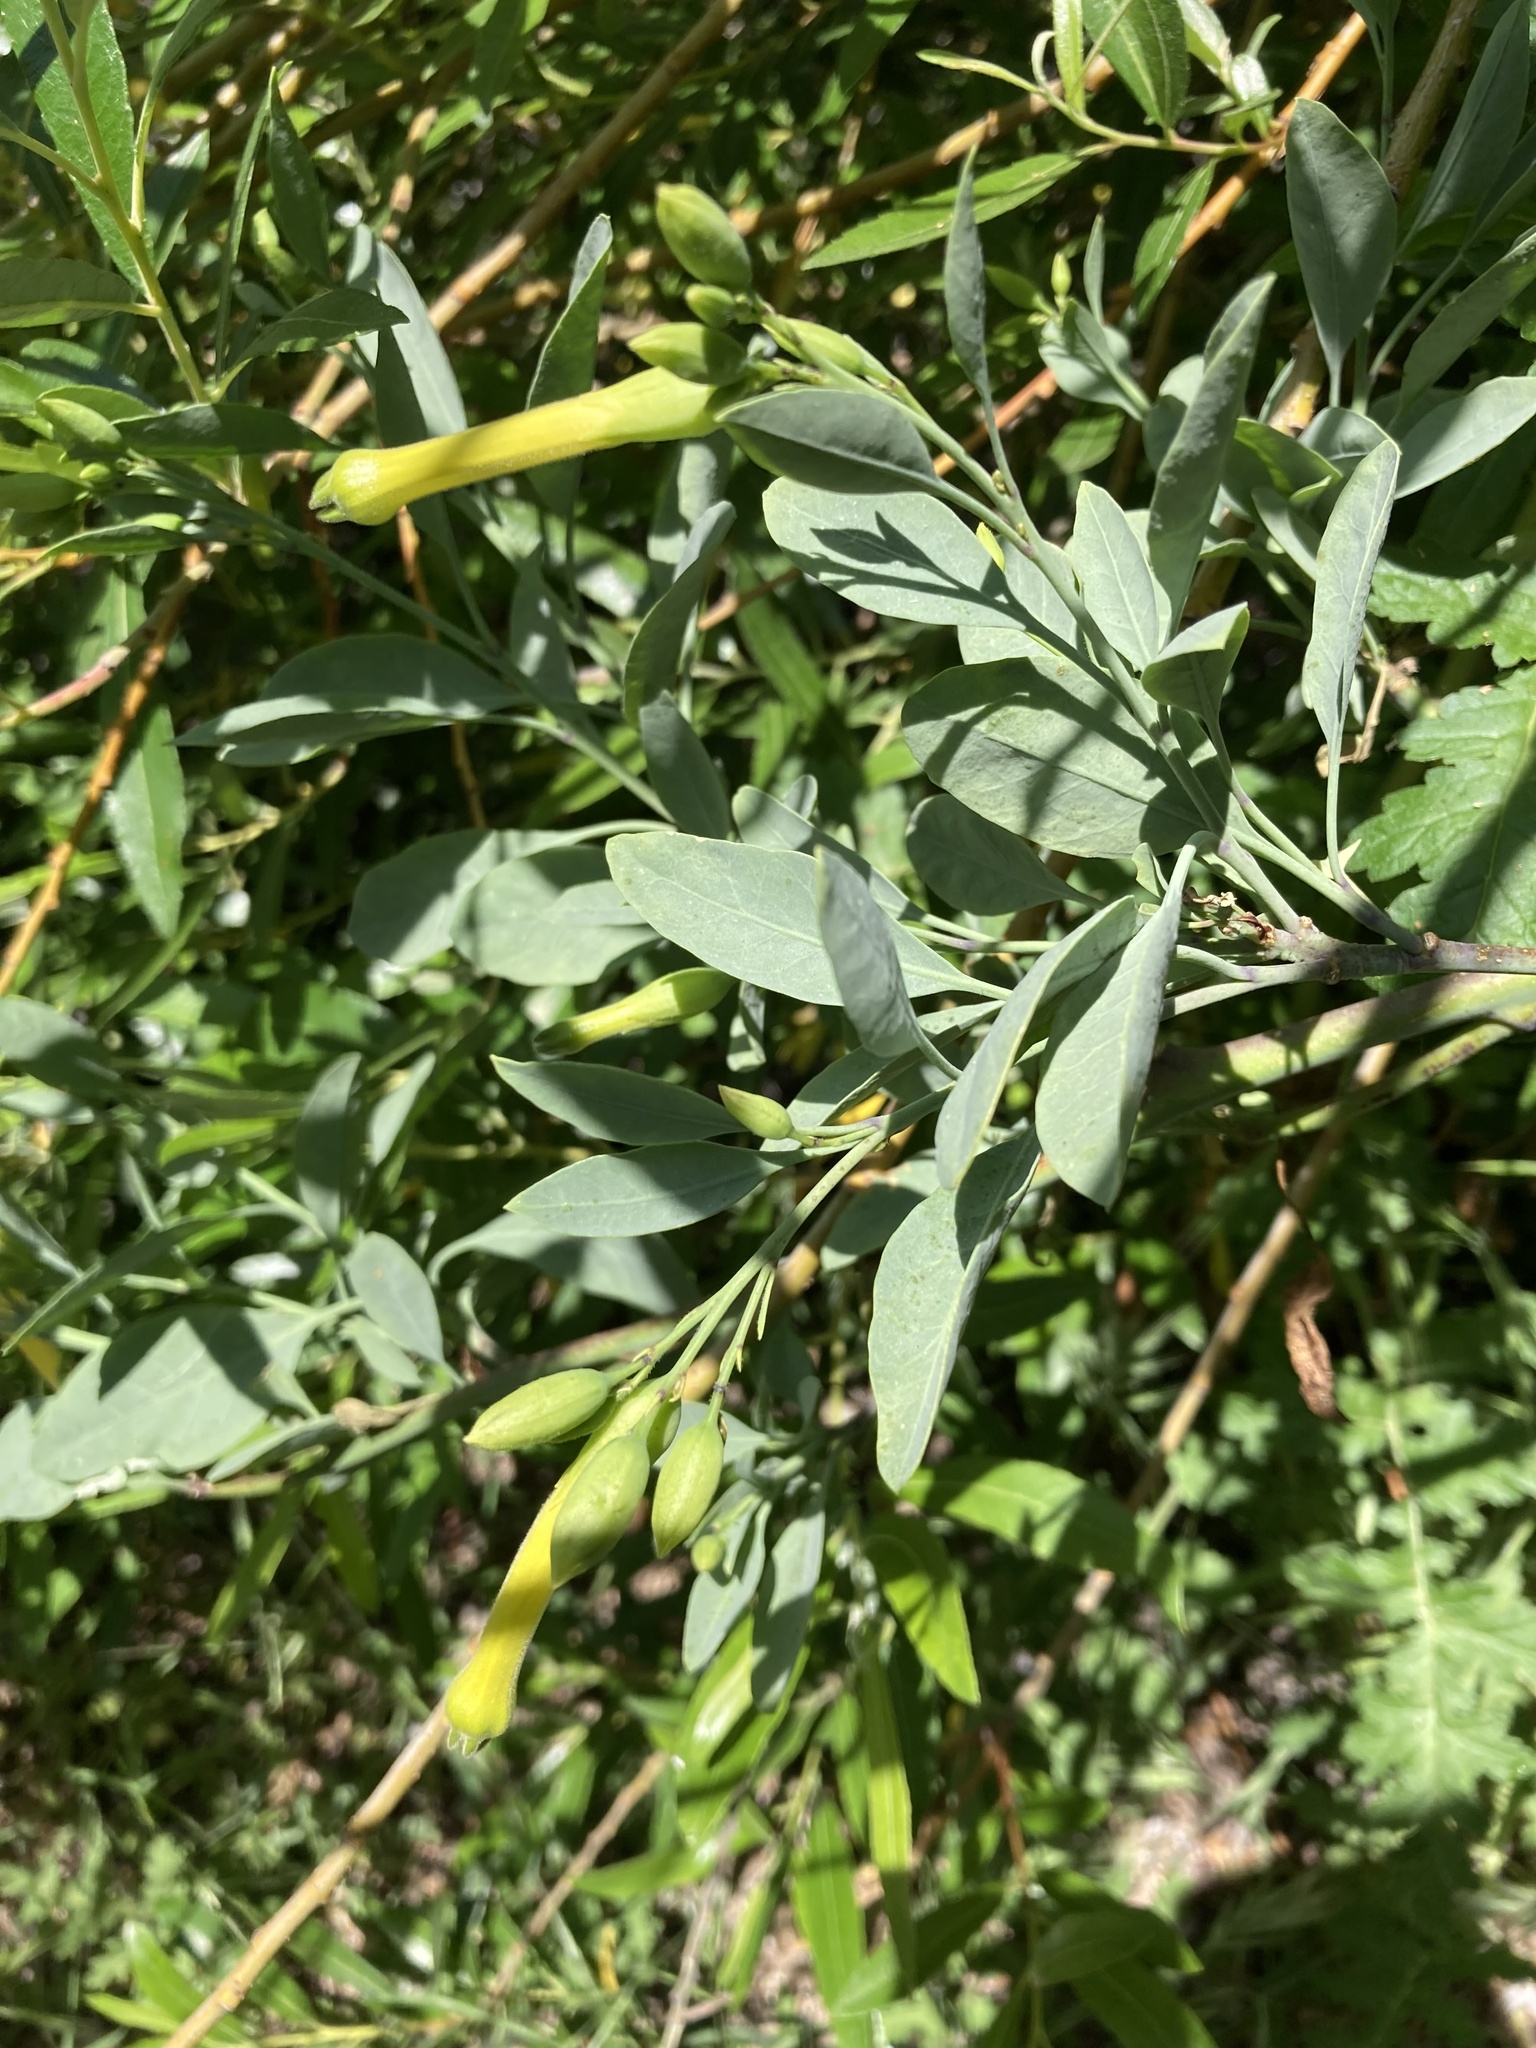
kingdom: Plantae
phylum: Tracheophyta
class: Magnoliopsida
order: Solanales
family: Solanaceae
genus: Nicotiana
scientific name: Nicotiana glauca
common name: Tree tobacco
